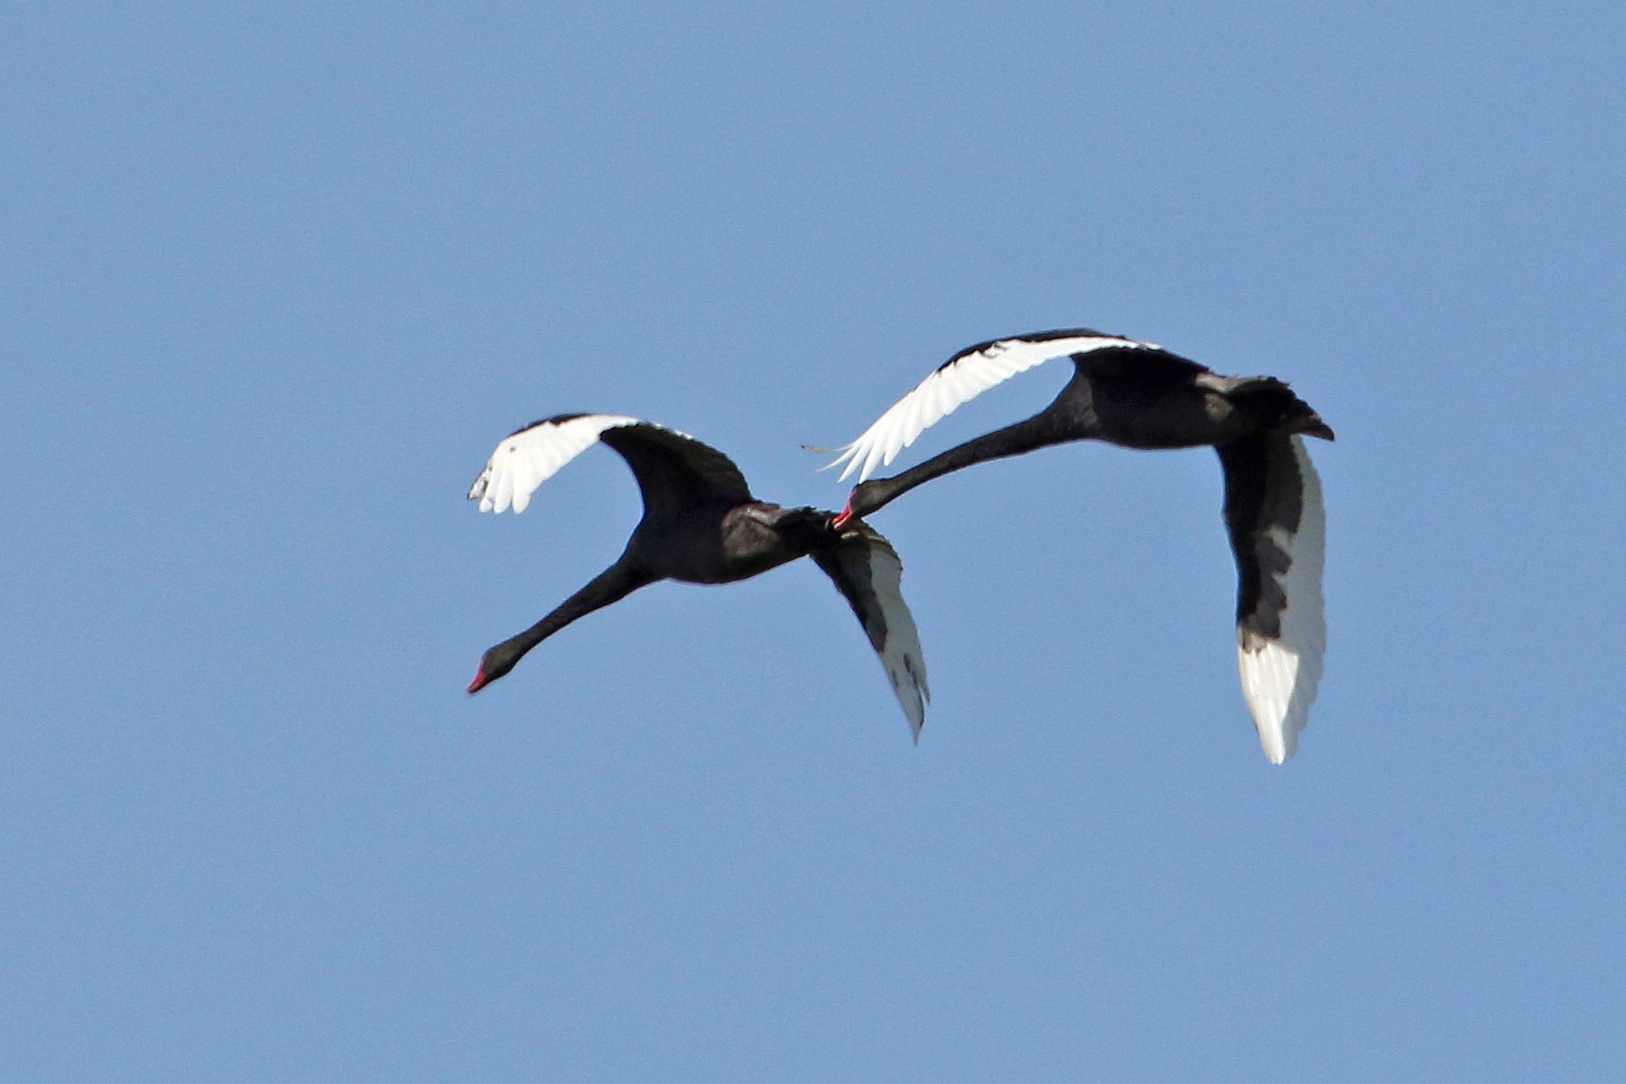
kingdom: Animalia
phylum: Chordata
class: Aves
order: Anseriformes
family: Anatidae
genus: Cygnus
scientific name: Cygnus atratus
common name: Black swan
